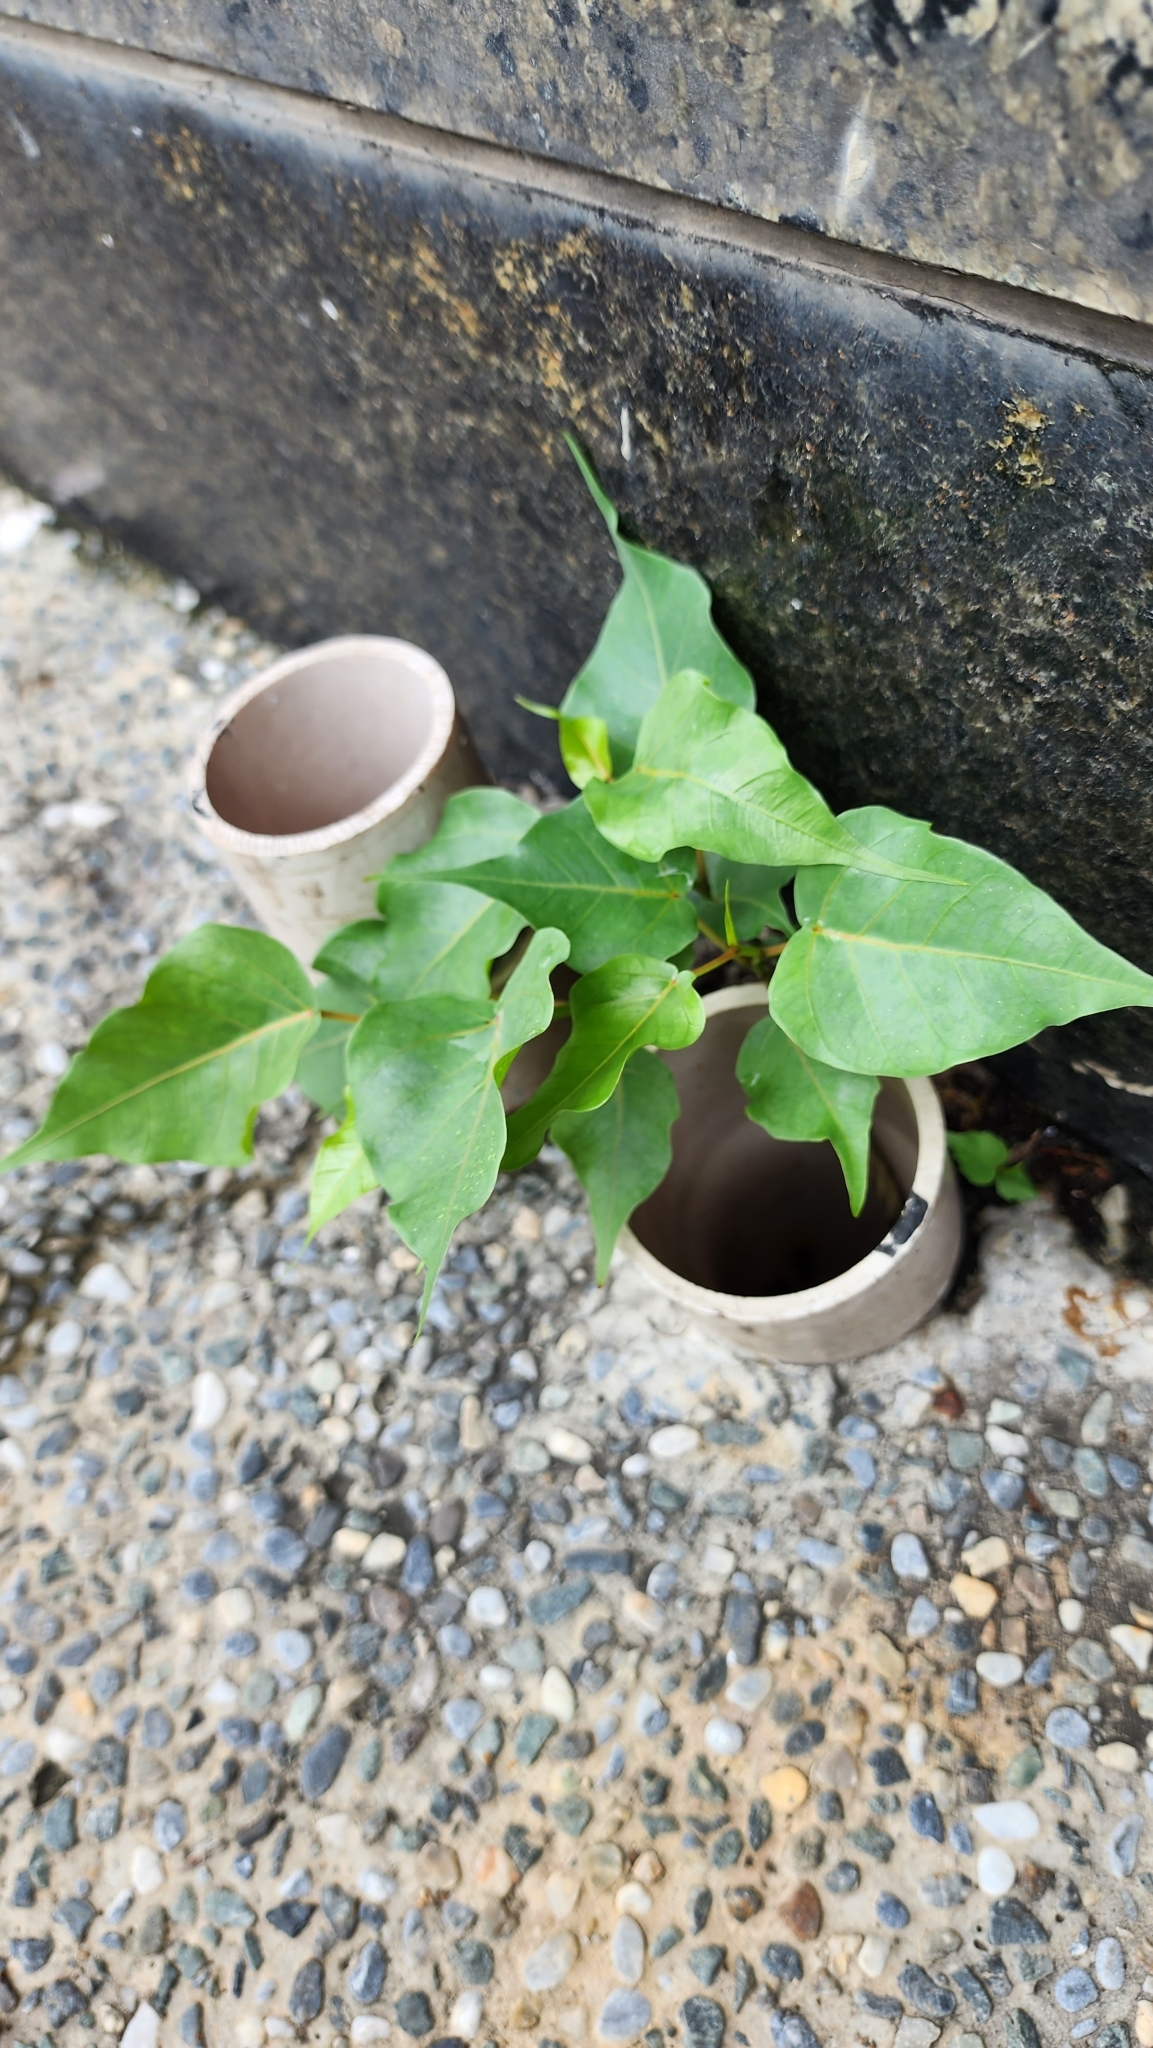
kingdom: Plantae
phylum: Tracheophyta
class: Magnoliopsida
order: Rosales
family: Moraceae
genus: Ficus
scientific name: Ficus religiosa
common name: Bodhi tree
